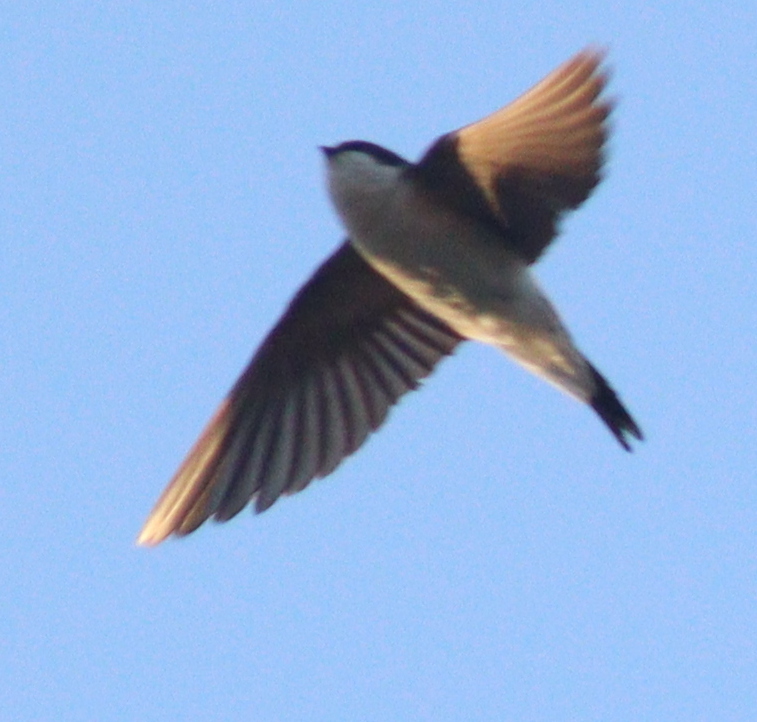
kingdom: Animalia
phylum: Chordata
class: Aves
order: Passeriformes
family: Hirundinidae
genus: Delichon
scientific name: Delichon urbicum
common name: Common house martin
